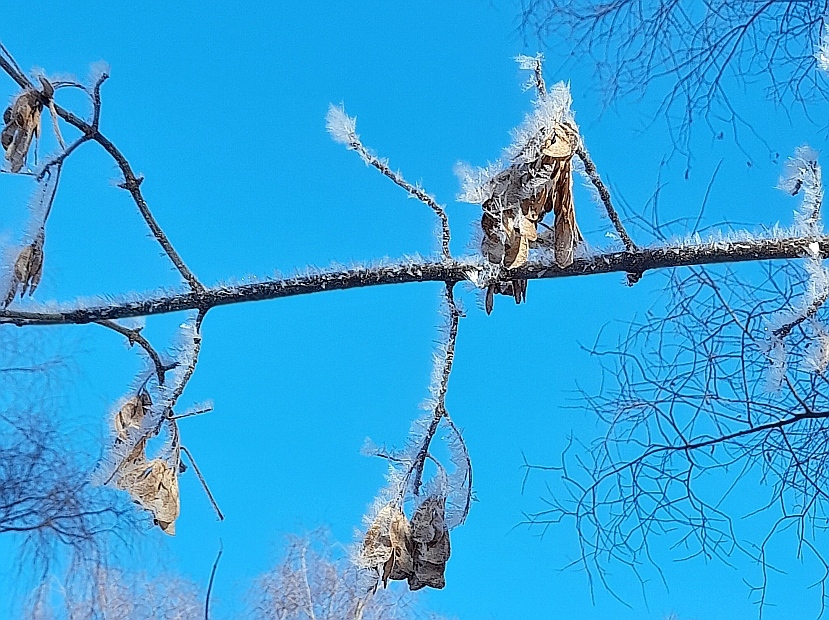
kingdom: Plantae
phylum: Tracheophyta
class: Magnoliopsida
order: Sapindales
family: Sapindaceae
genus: Acer
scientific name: Acer negundo
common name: Ashleaf maple
